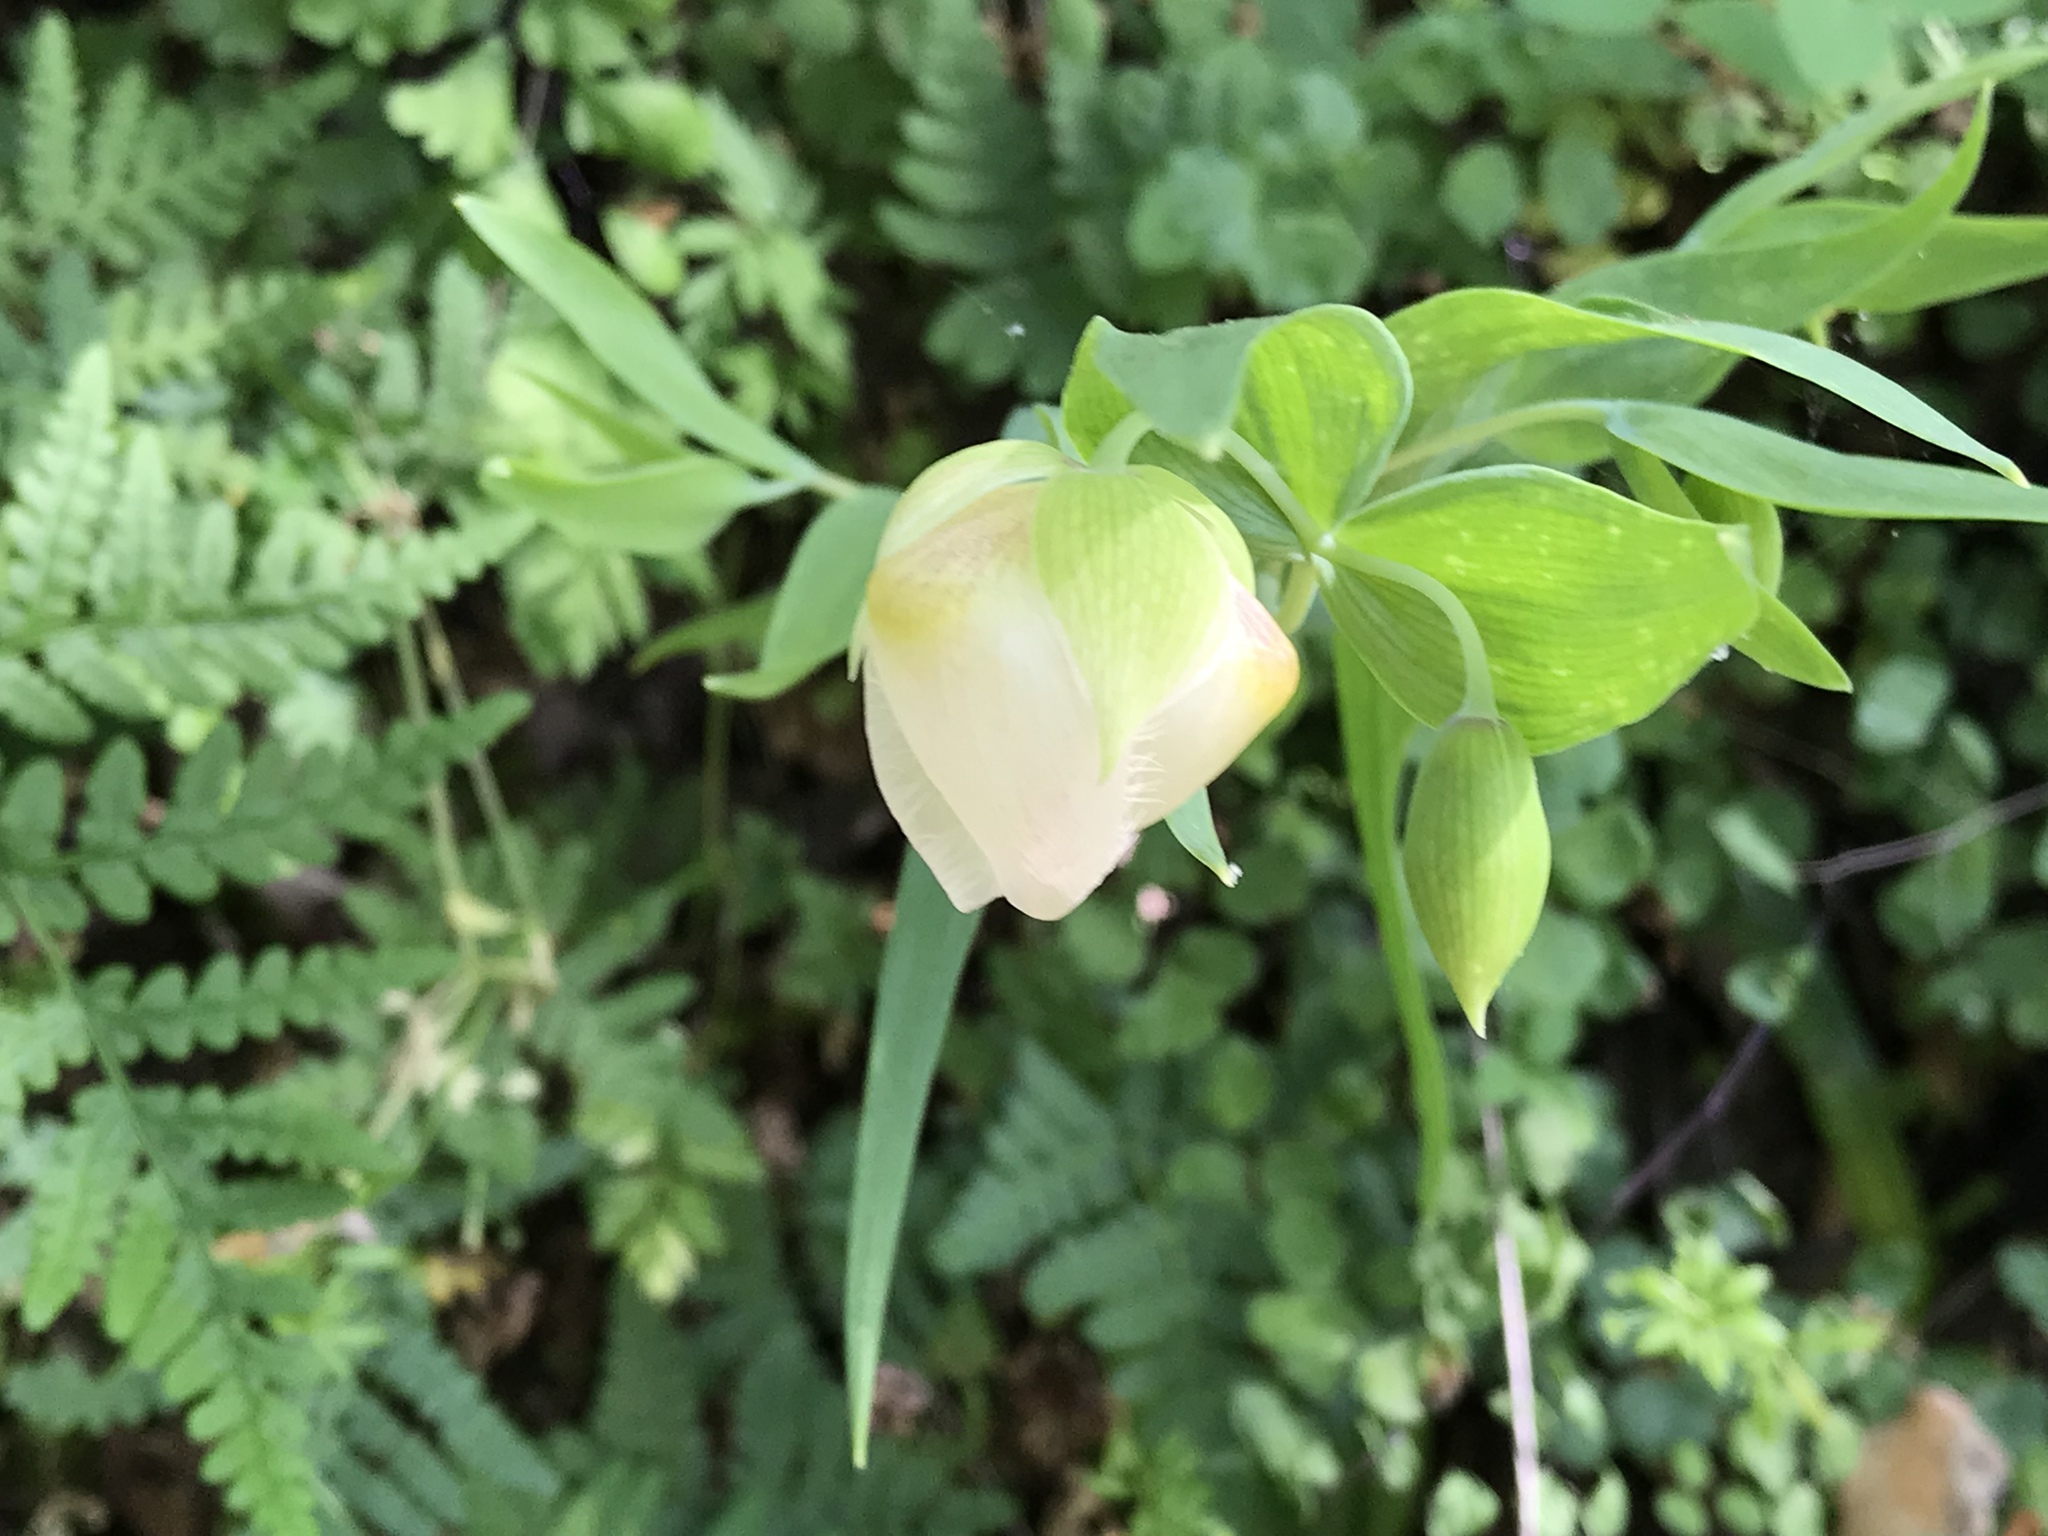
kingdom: Plantae
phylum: Tracheophyta
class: Liliopsida
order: Liliales
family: Liliaceae
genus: Calochortus
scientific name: Calochortus albus
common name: Fairy-lantern
